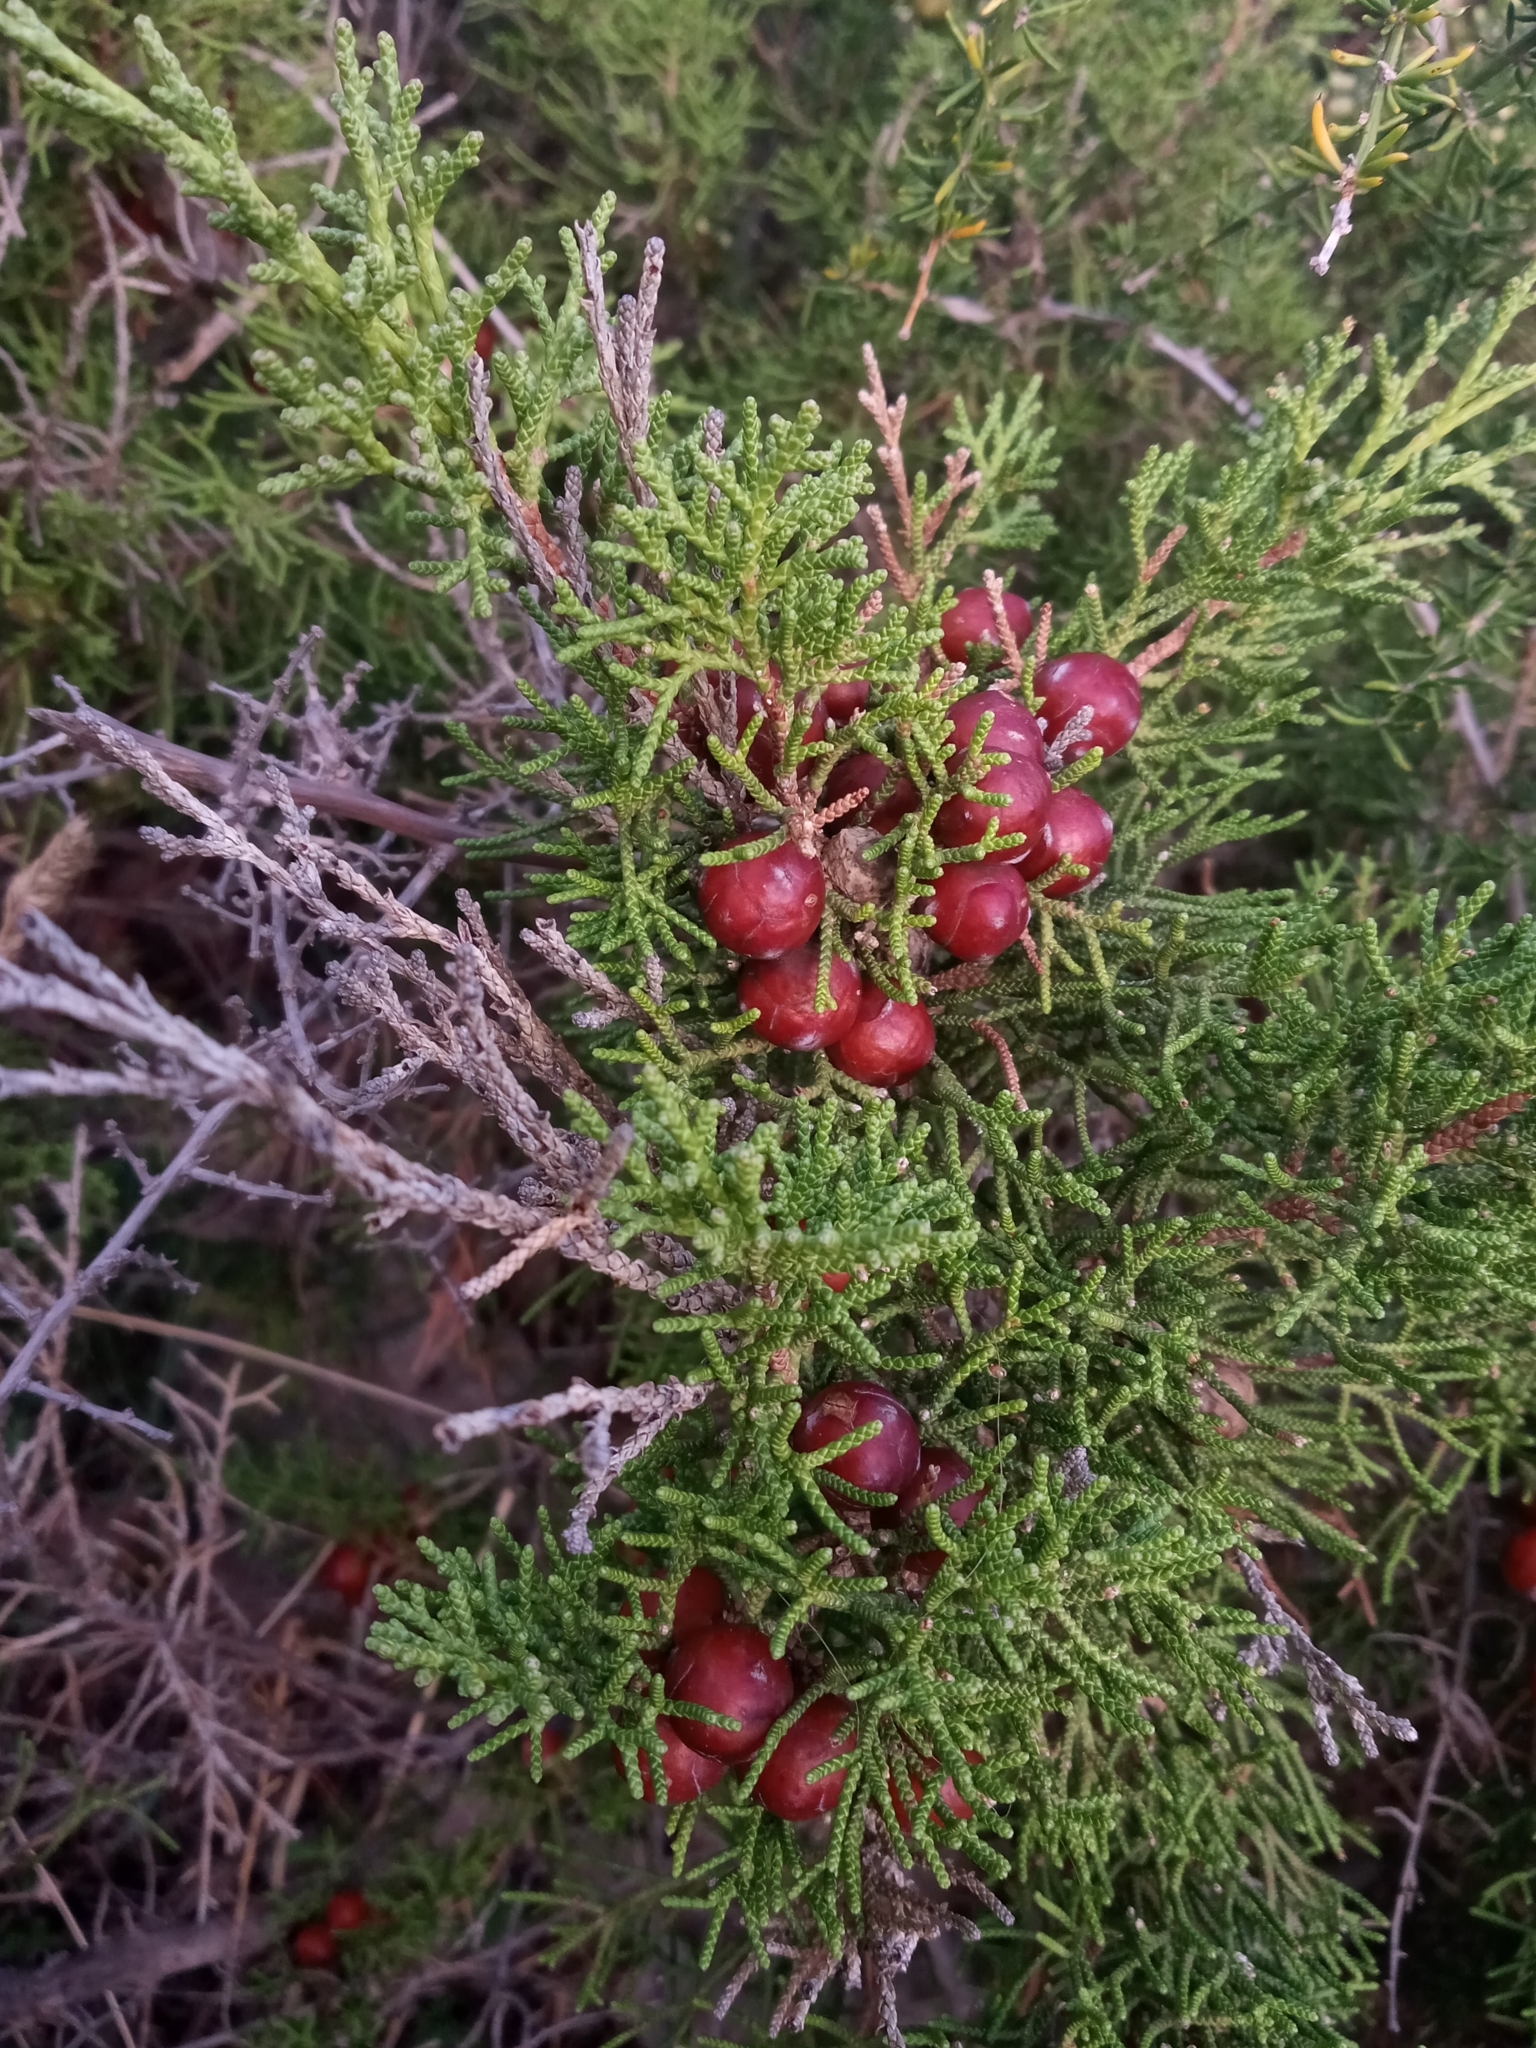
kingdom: Plantae
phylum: Tracheophyta
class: Pinopsida
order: Pinales
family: Cupressaceae
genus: Juniperus
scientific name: Juniperus phoenicea
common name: Phoenician juniper
